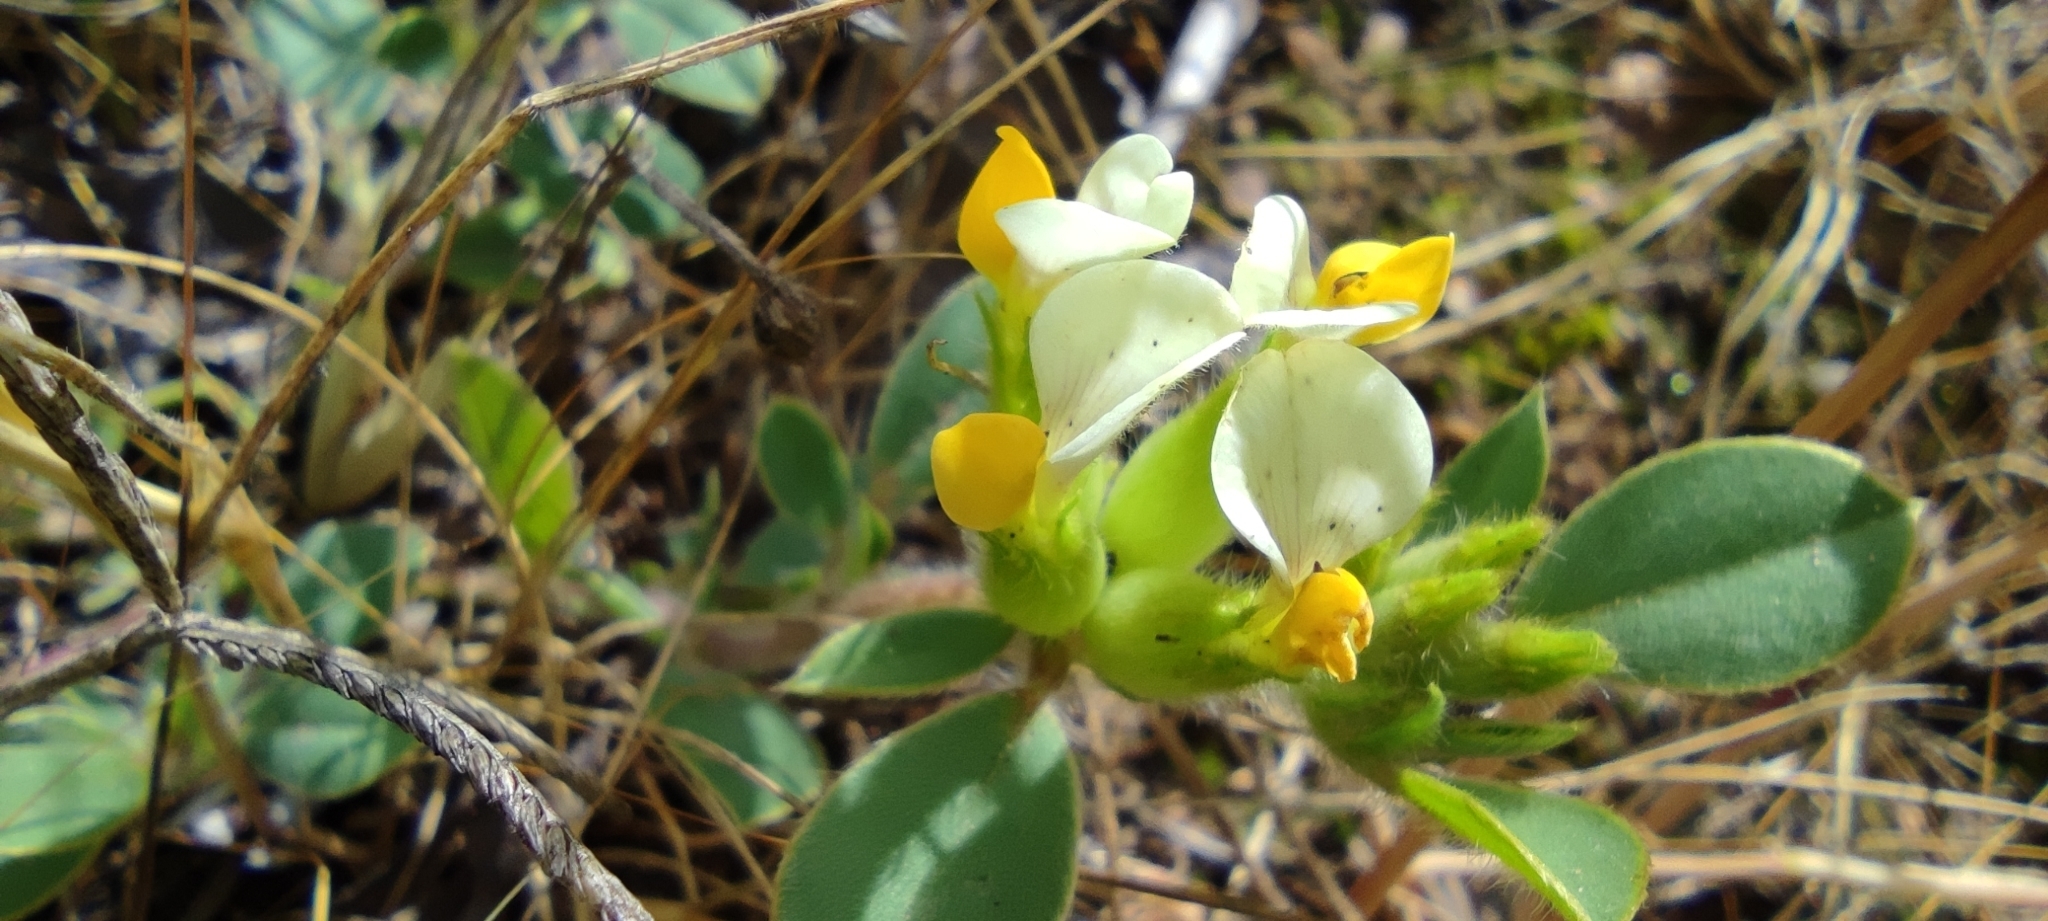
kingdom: Plantae
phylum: Tracheophyta
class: Magnoliopsida
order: Fabales
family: Fabaceae
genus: Tripodion
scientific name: Tripodion tetraphyllum
